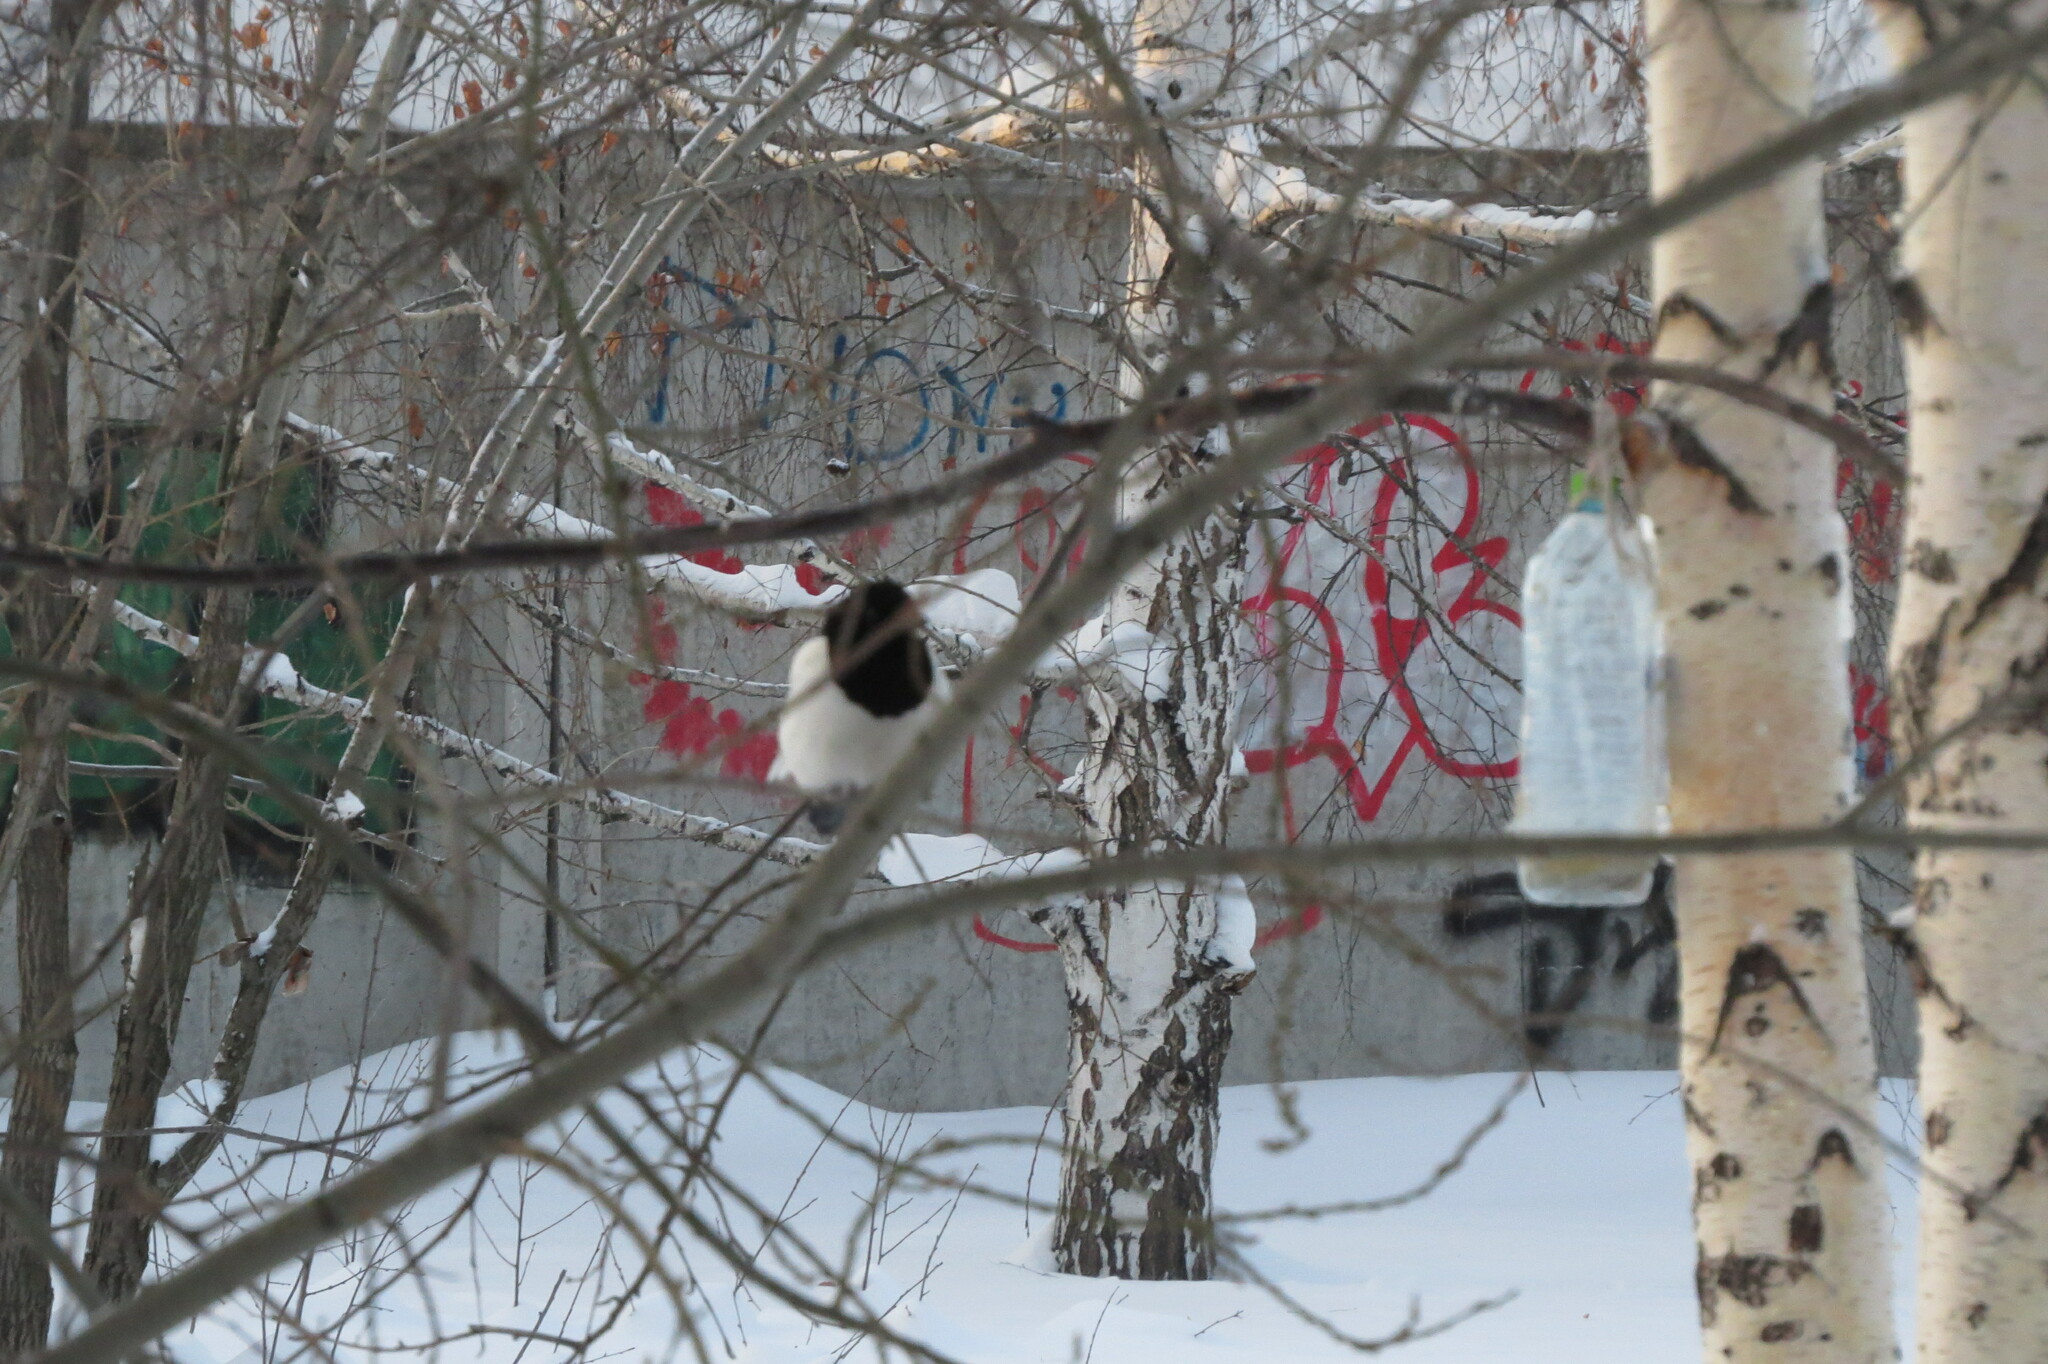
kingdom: Animalia
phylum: Chordata
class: Aves
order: Passeriformes
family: Corvidae
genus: Pica
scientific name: Pica pica
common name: Eurasian magpie
